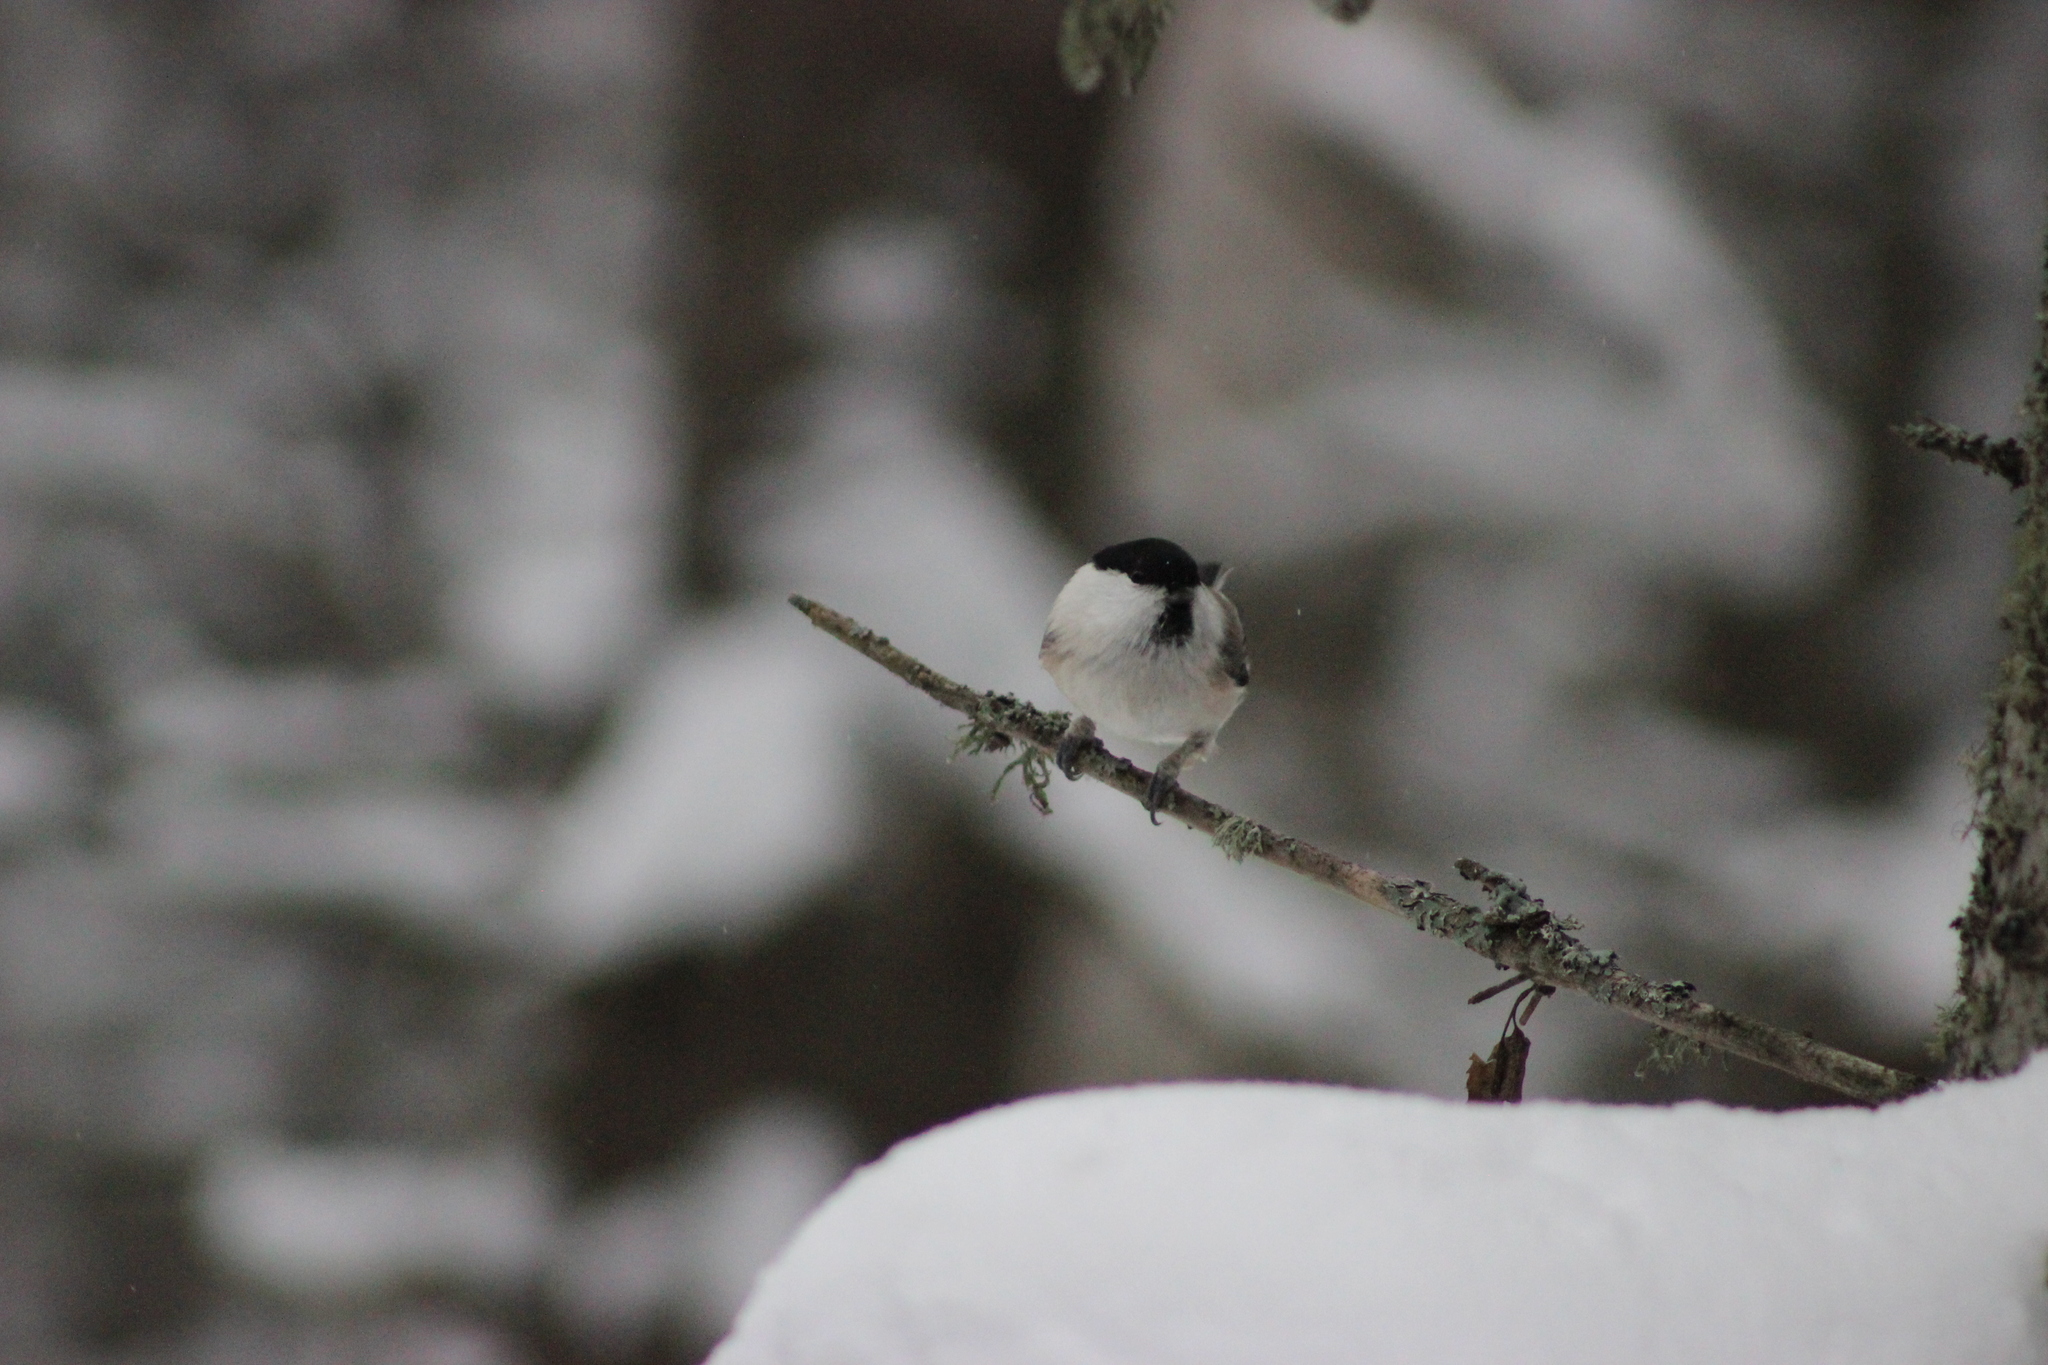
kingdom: Animalia
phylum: Chordata
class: Aves
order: Passeriformes
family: Paridae
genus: Poecile
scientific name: Poecile montanus
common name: Willow tit
